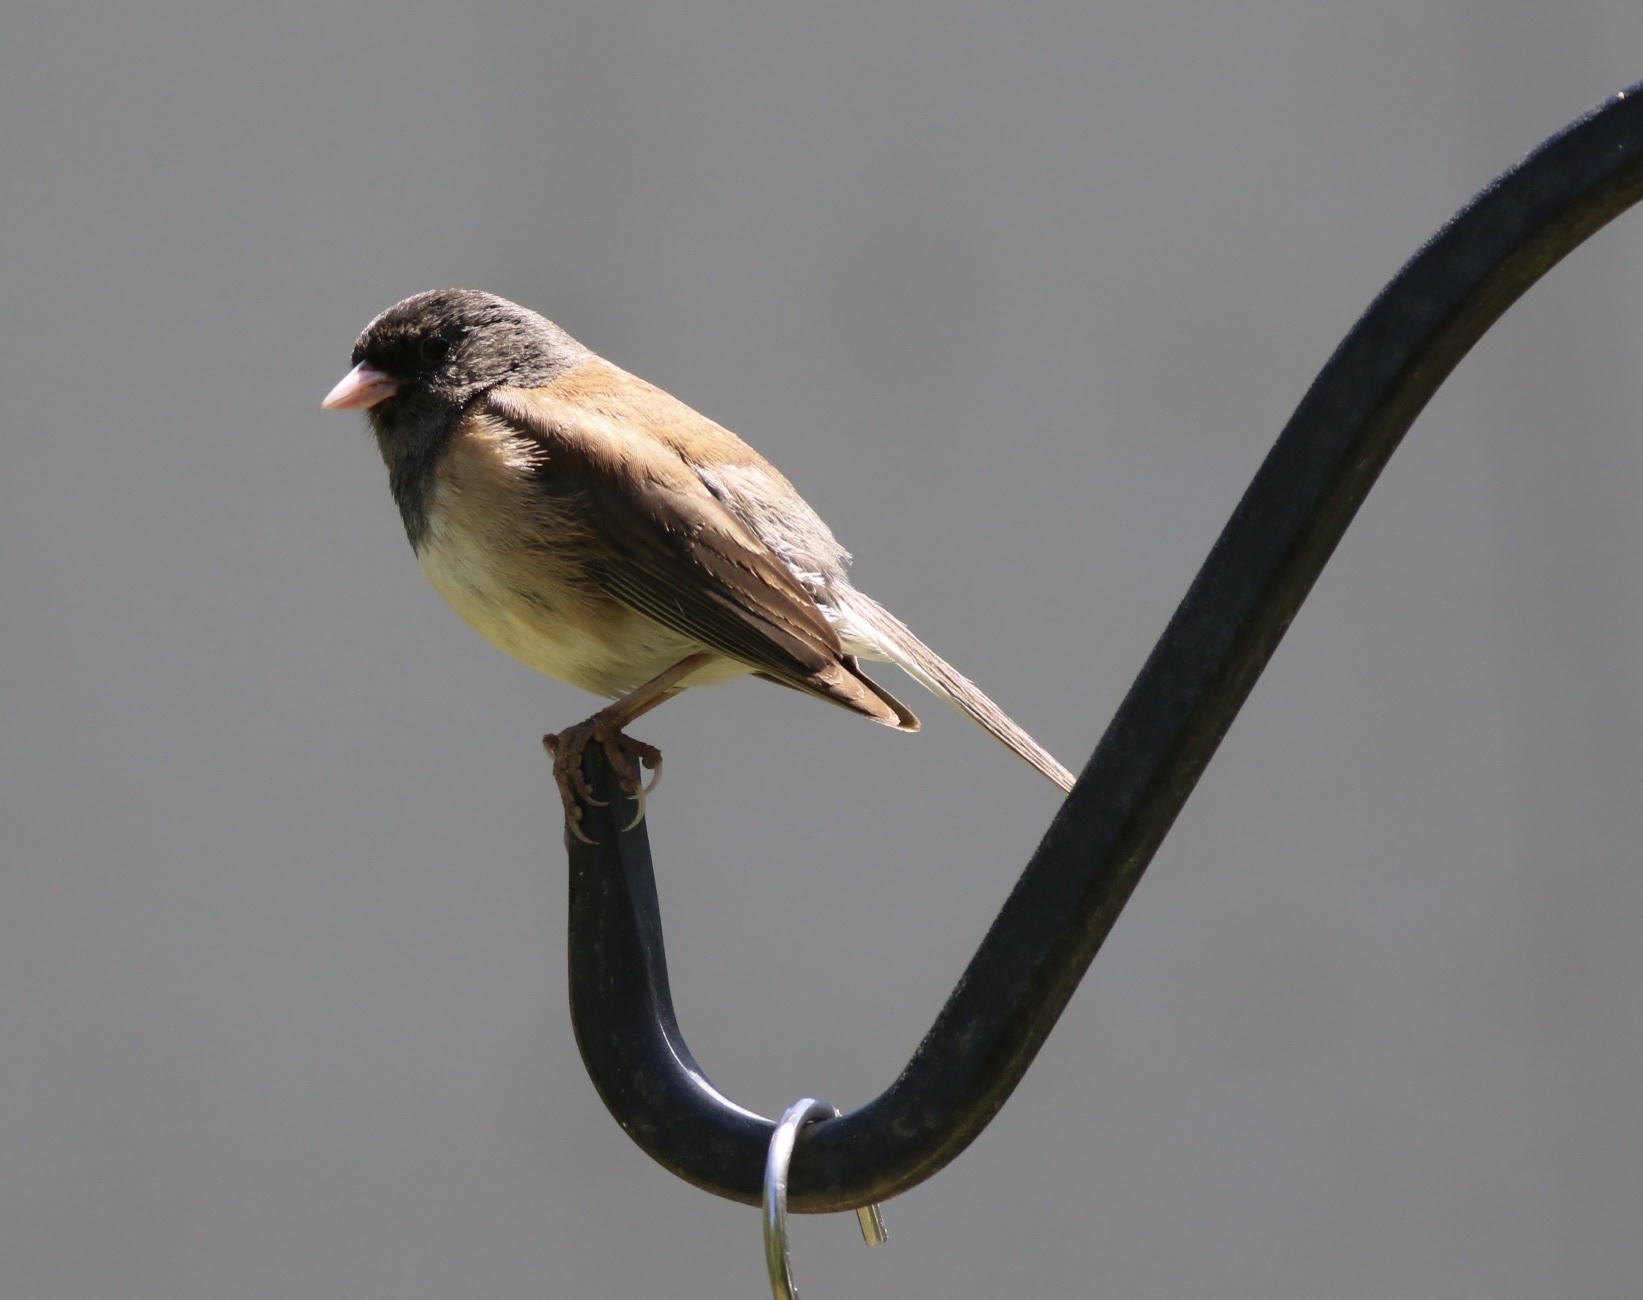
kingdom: Animalia
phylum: Chordata
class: Aves
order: Passeriformes
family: Passerellidae
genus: Junco
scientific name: Junco hyemalis
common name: Dark-eyed junco
